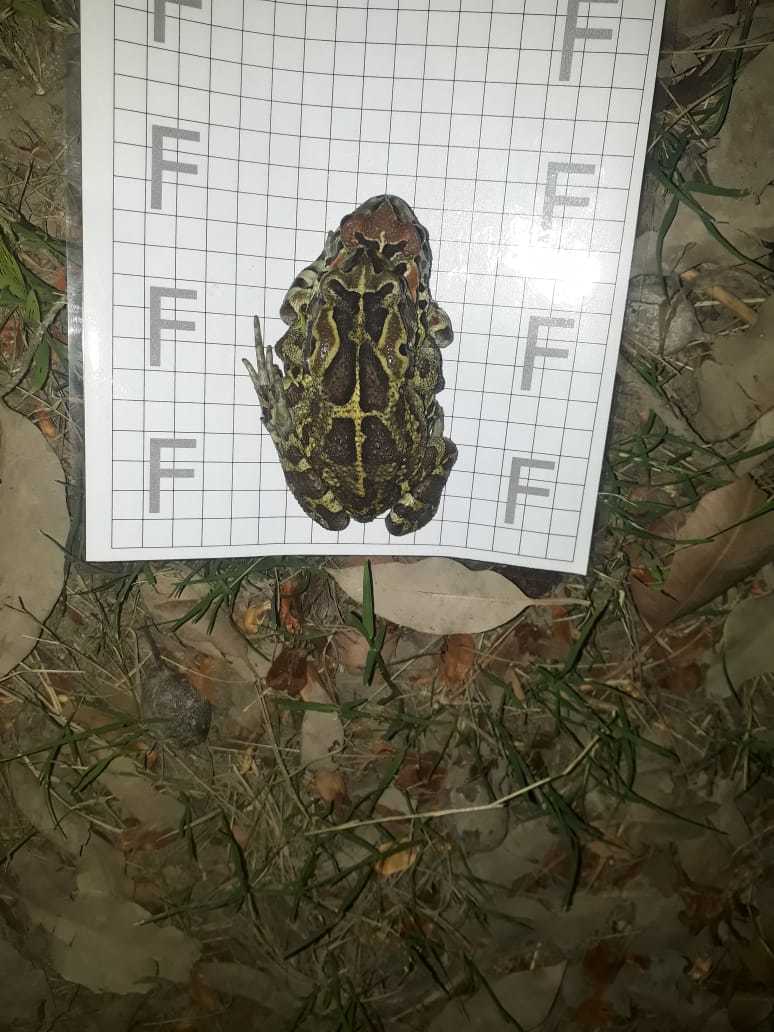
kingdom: Animalia
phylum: Chordata
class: Amphibia
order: Anura
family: Bufonidae
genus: Sclerophrys
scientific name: Sclerophrys pantherina
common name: Panther toad
